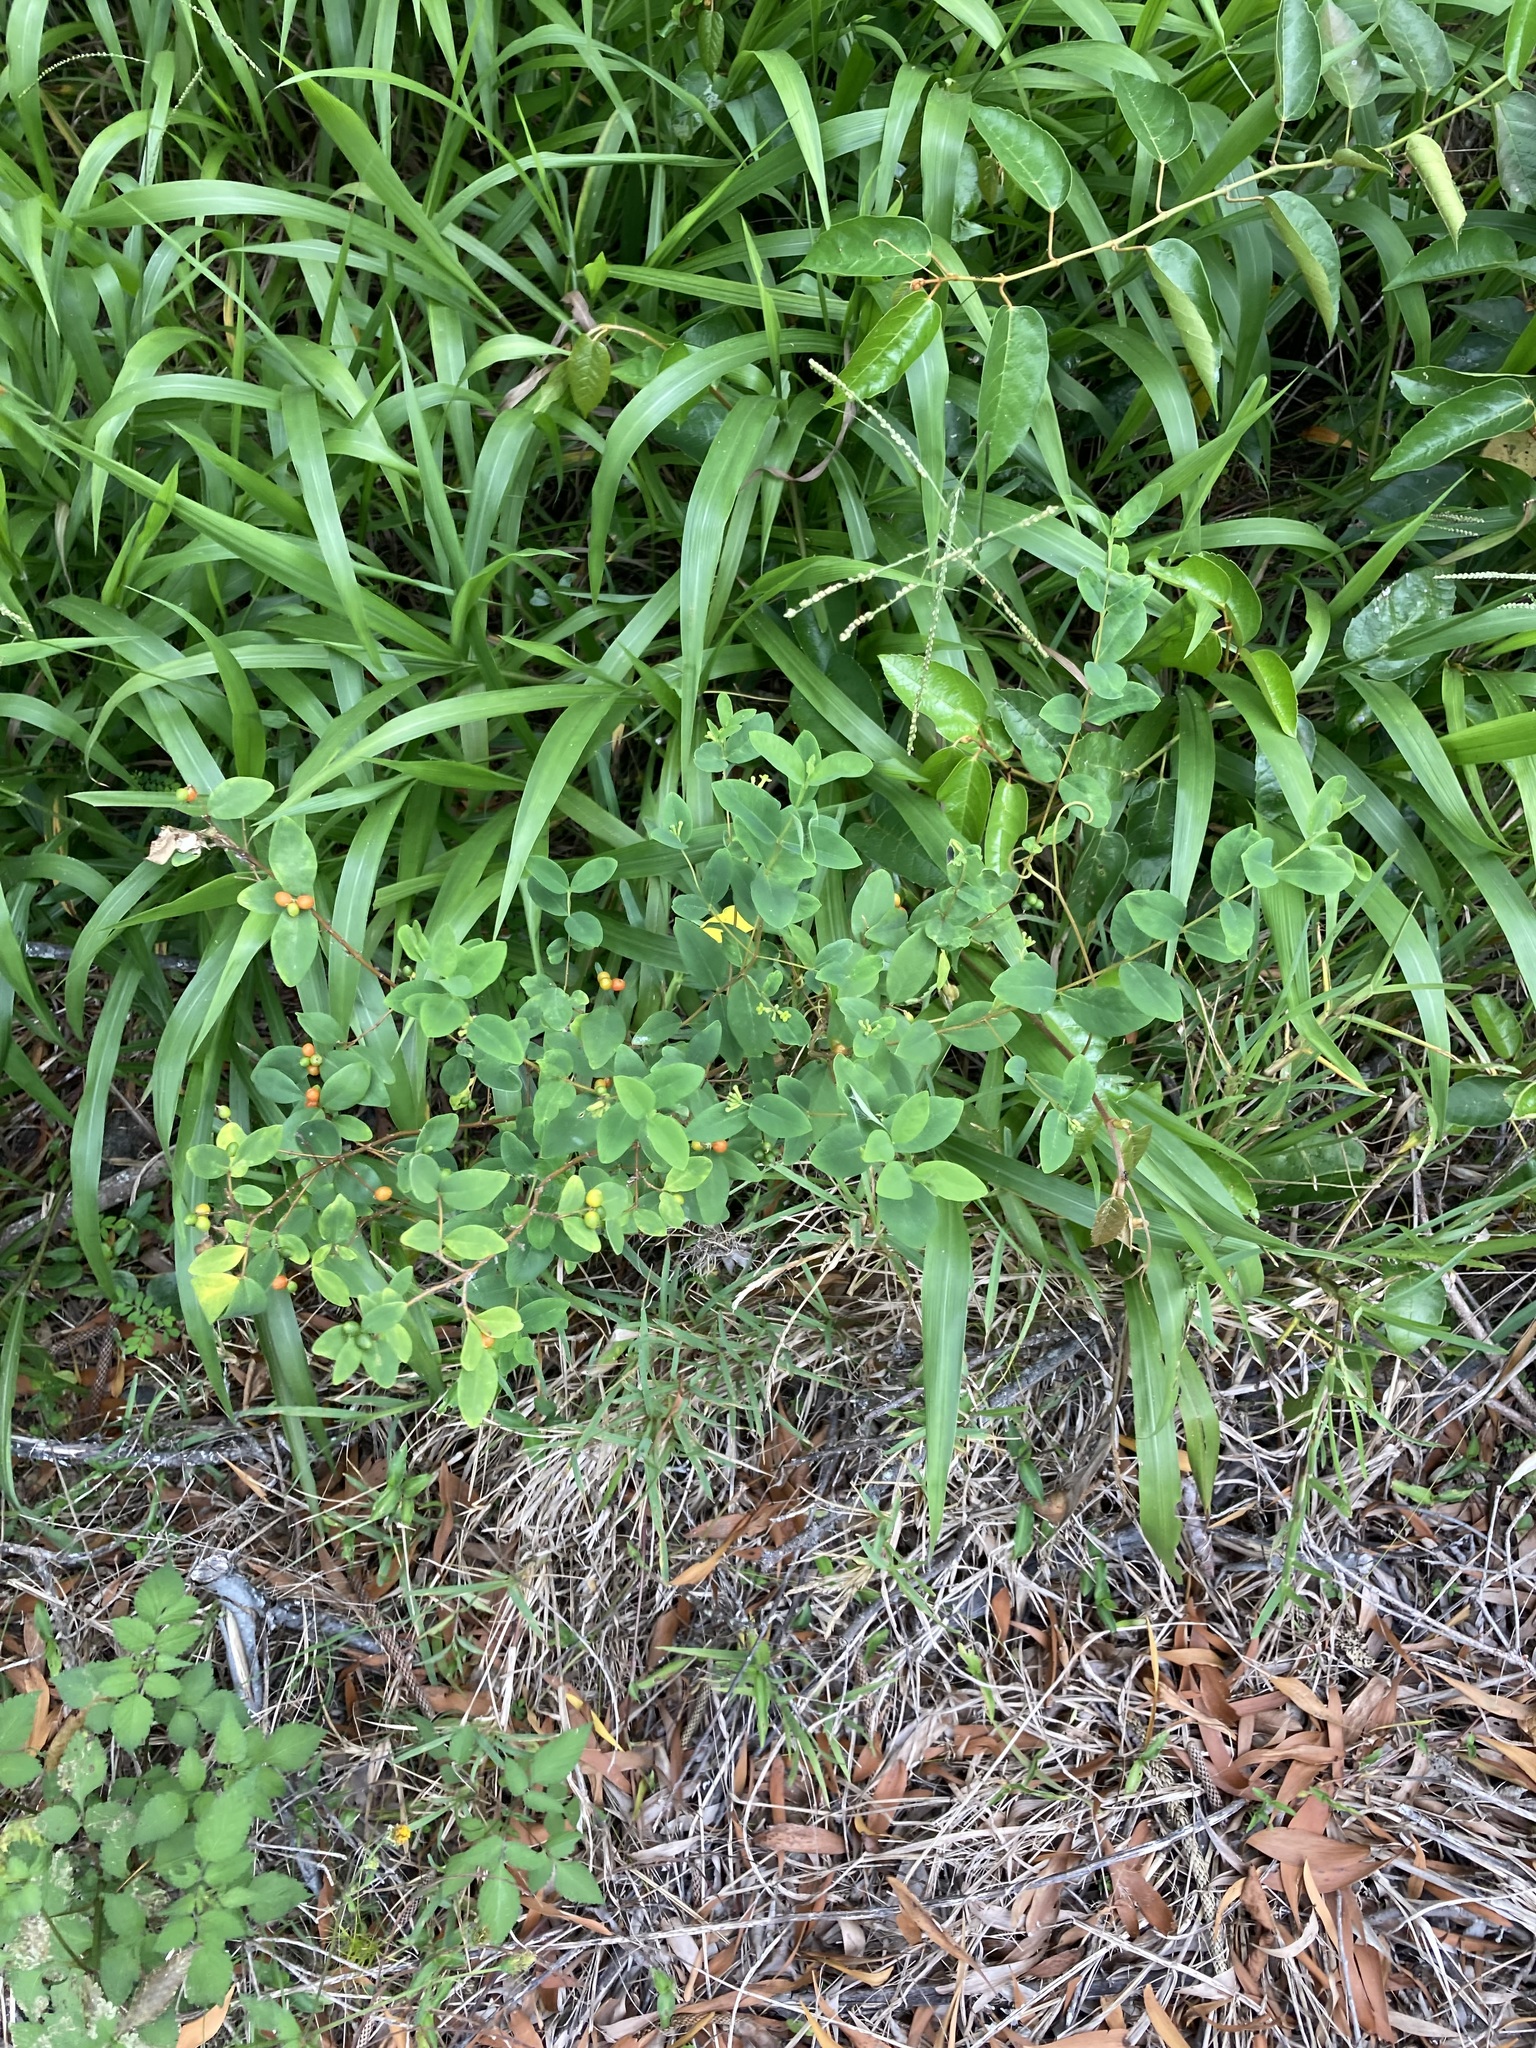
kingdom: Plantae
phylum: Tracheophyta
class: Magnoliopsida
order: Malvales
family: Thymelaeaceae
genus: Wikstroemia
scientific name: Wikstroemia indica
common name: Tiebush
